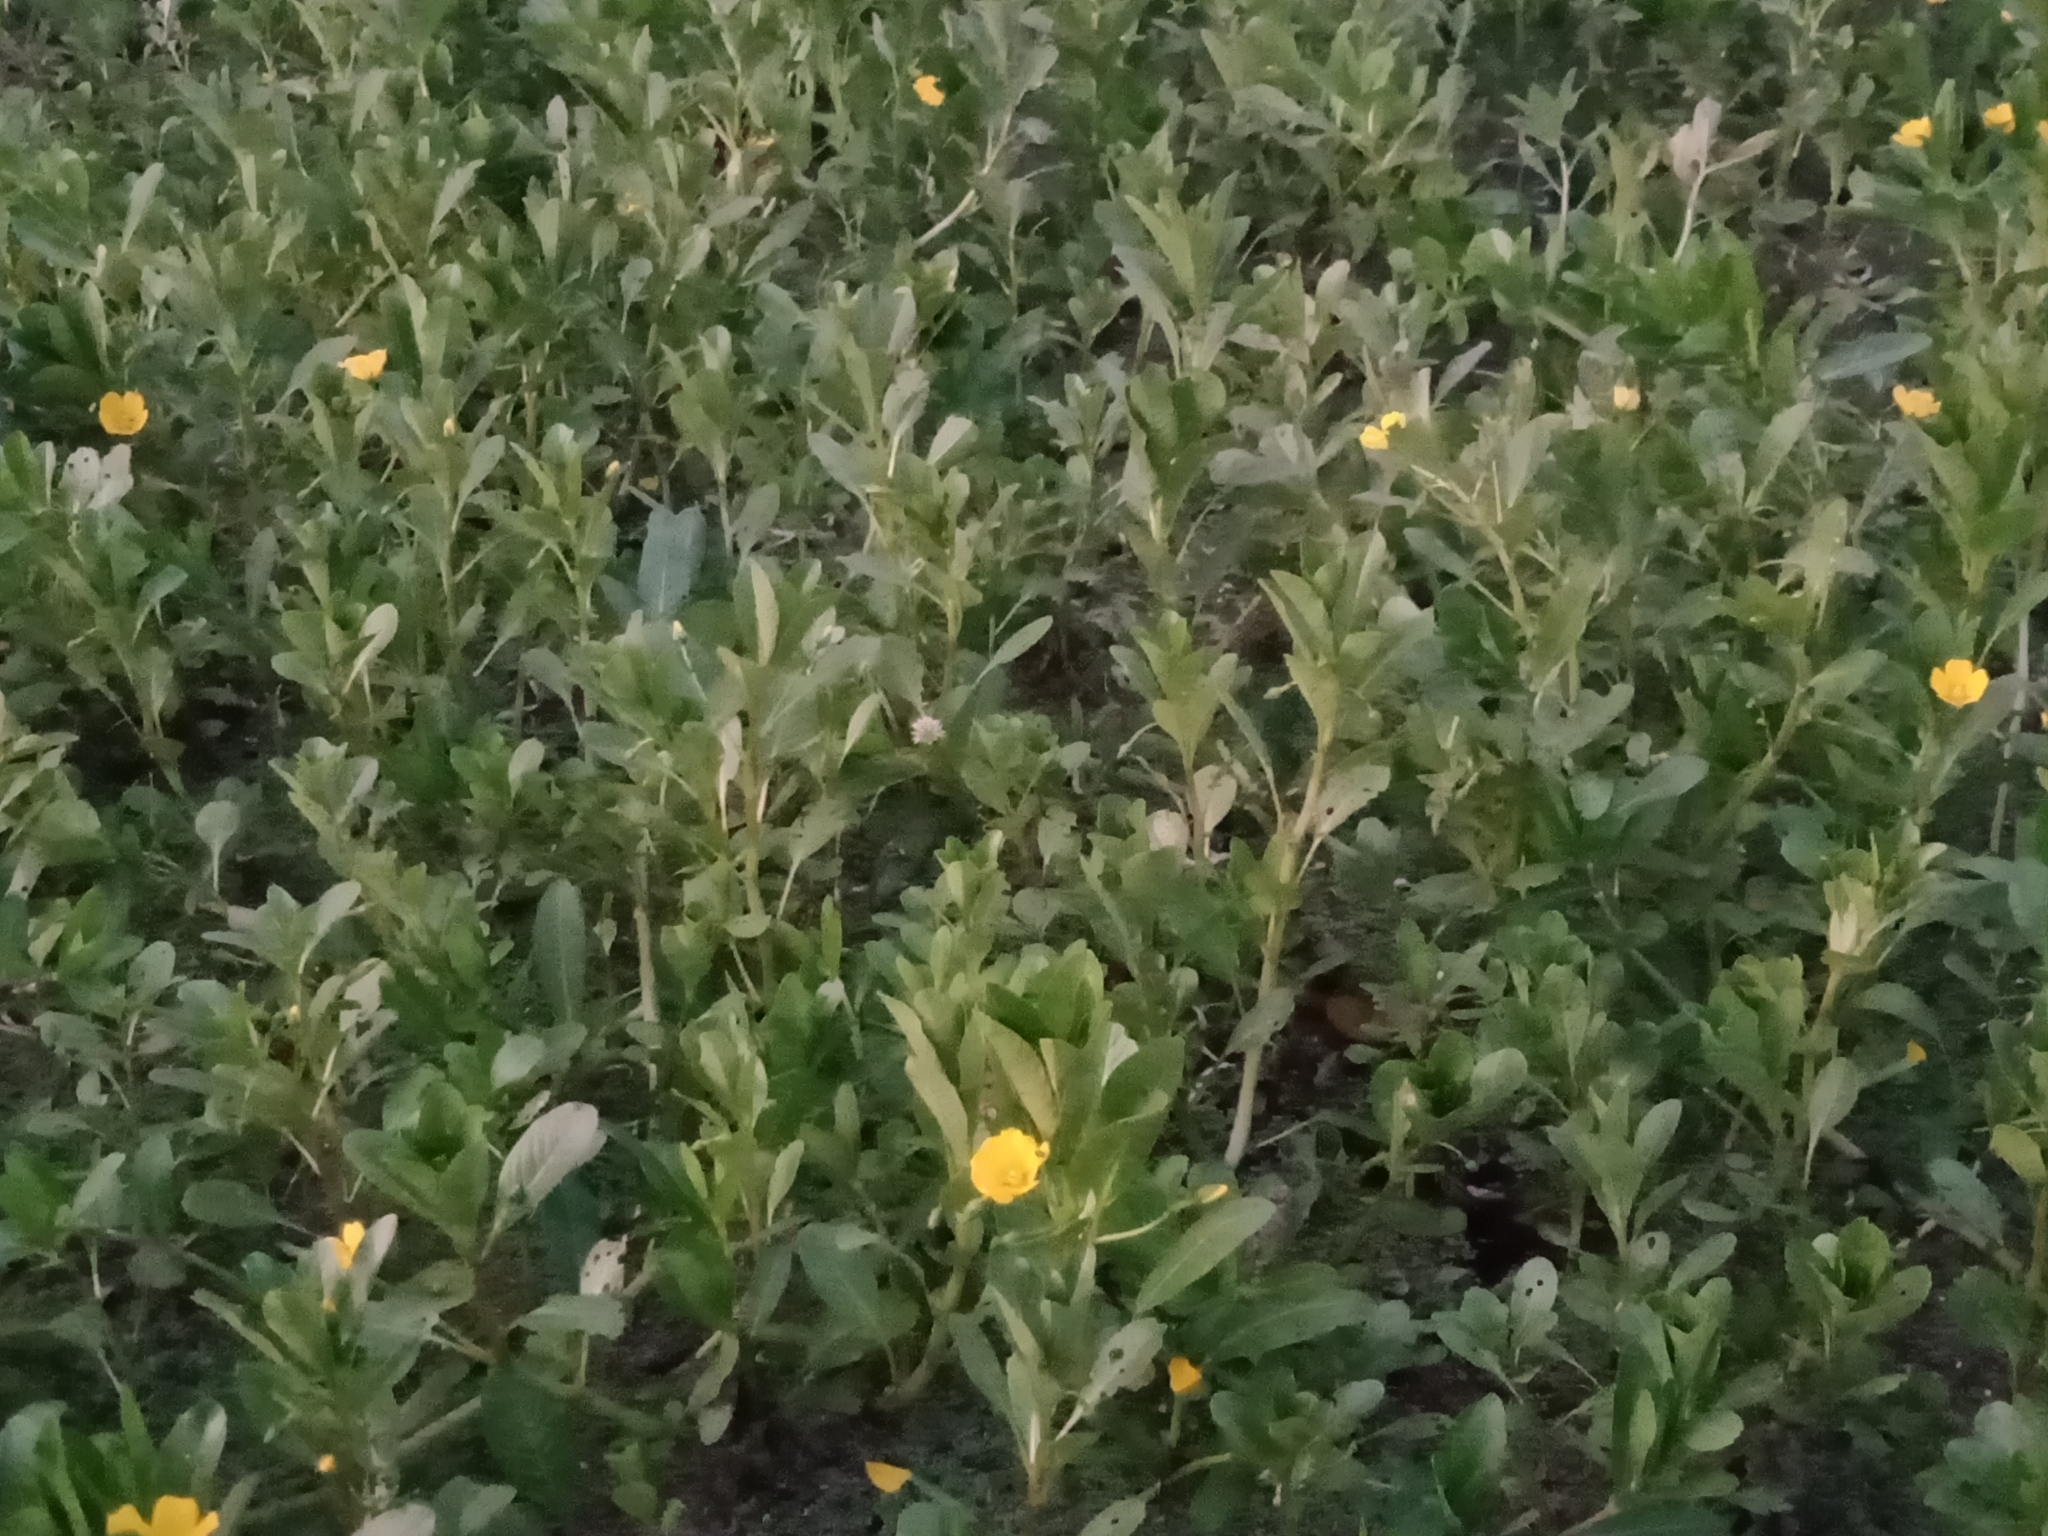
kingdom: Plantae
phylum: Tracheophyta
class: Magnoliopsida
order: Myrtales
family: Onagraceae
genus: Ludwigia
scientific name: Ludwigia peploides
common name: Floating primrose-willow
